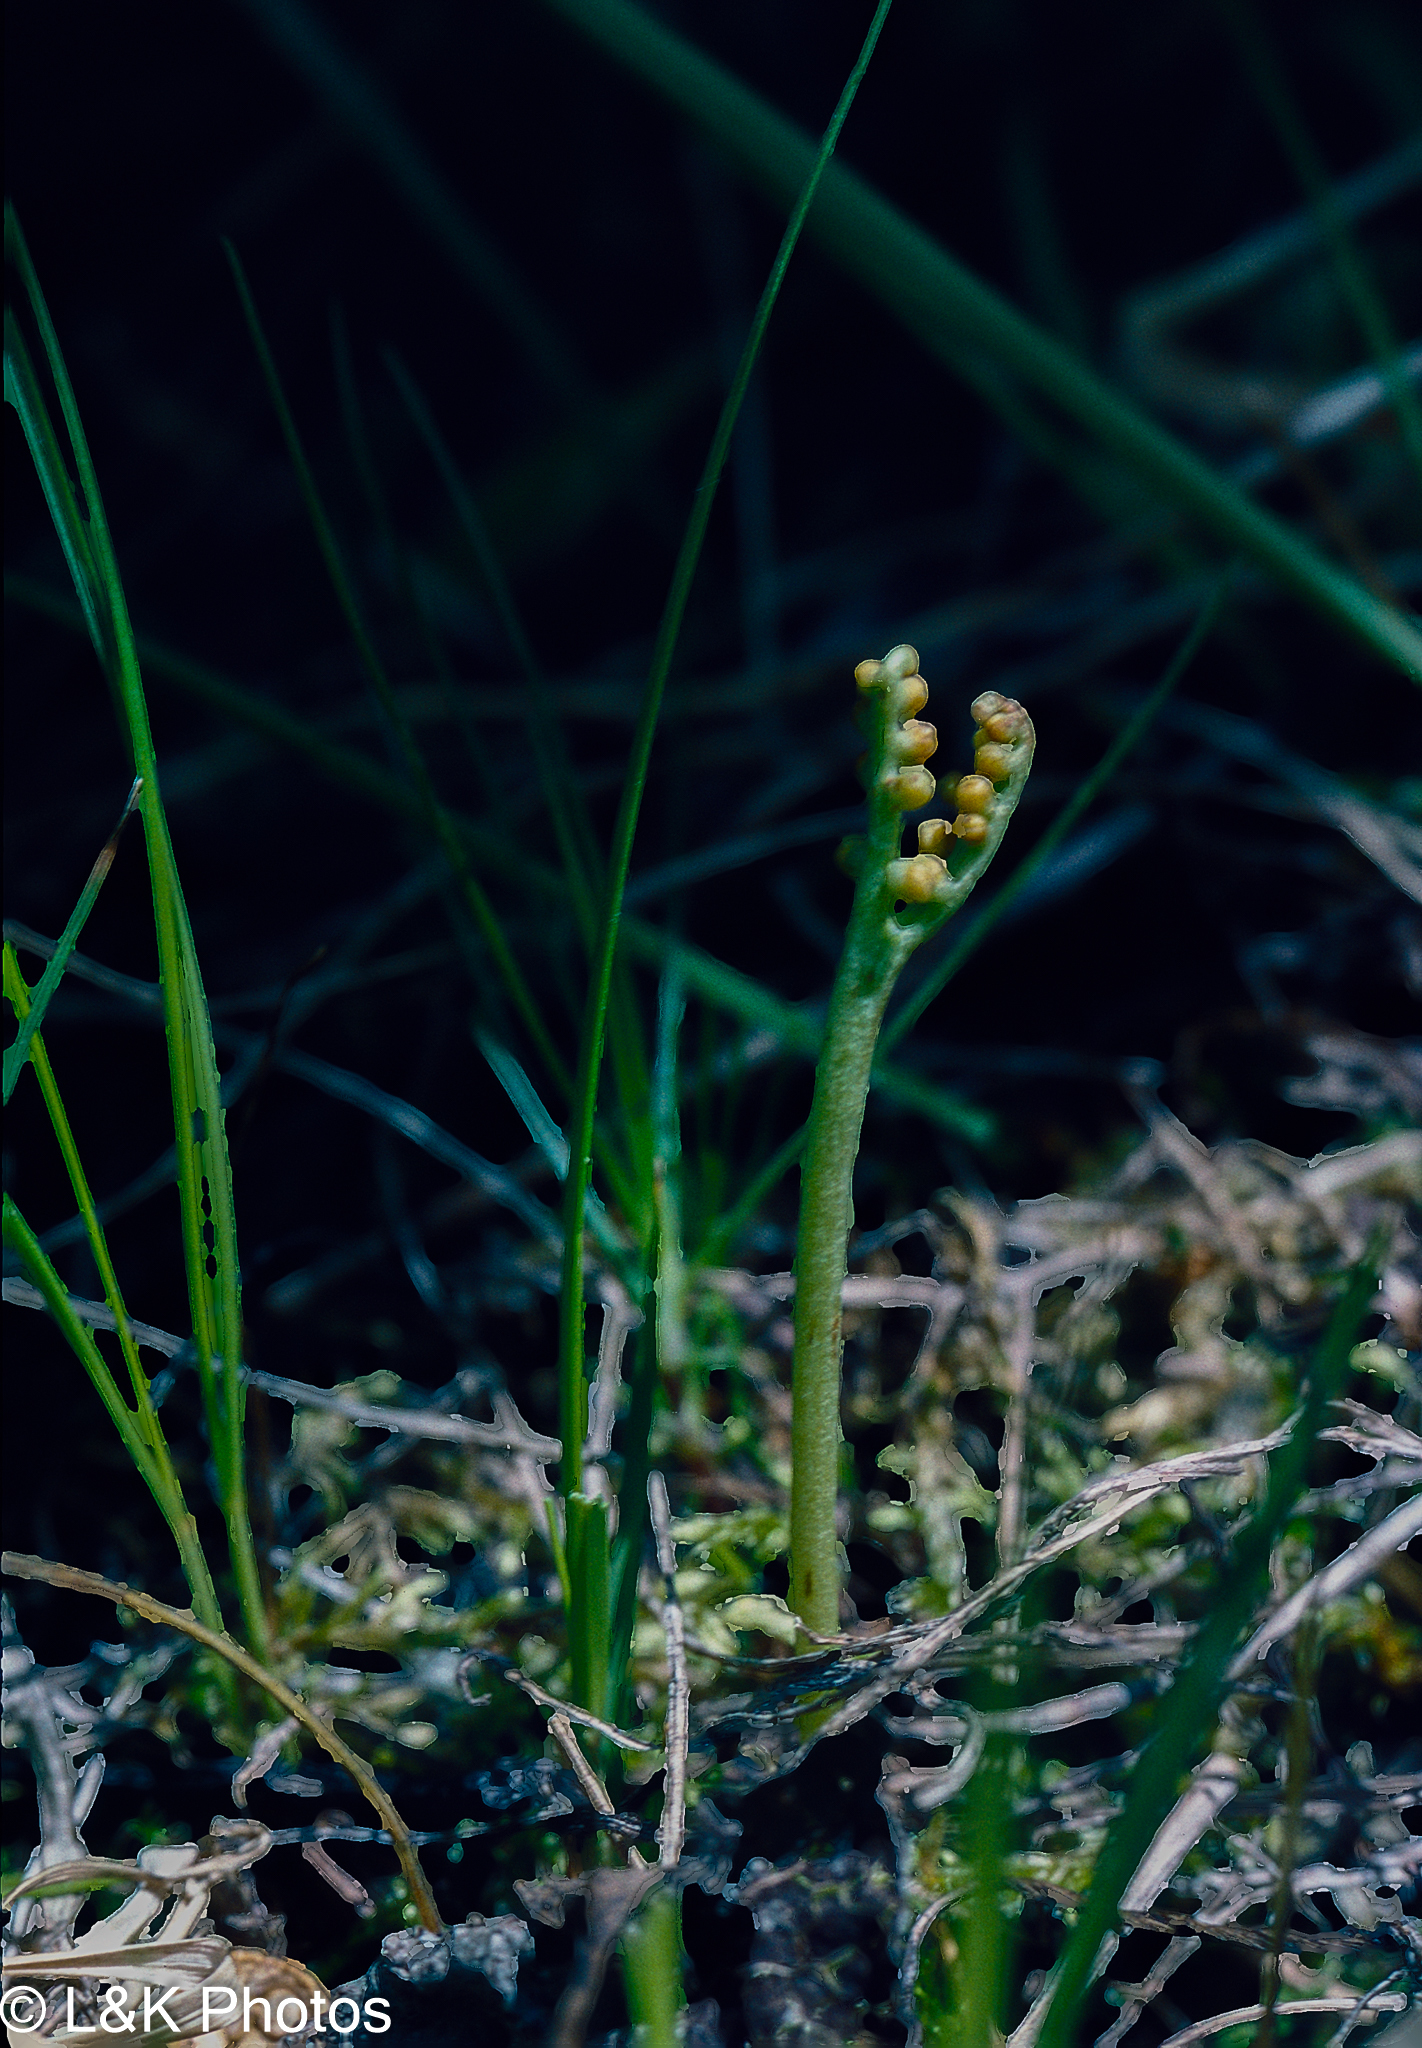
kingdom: Plantae
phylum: Tracheophyta
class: Polypodiopsida
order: Ophioglossales
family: Ophioglossaceae
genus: Botrychium
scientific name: Botrychium paradoxum
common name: Paradox moonwort
